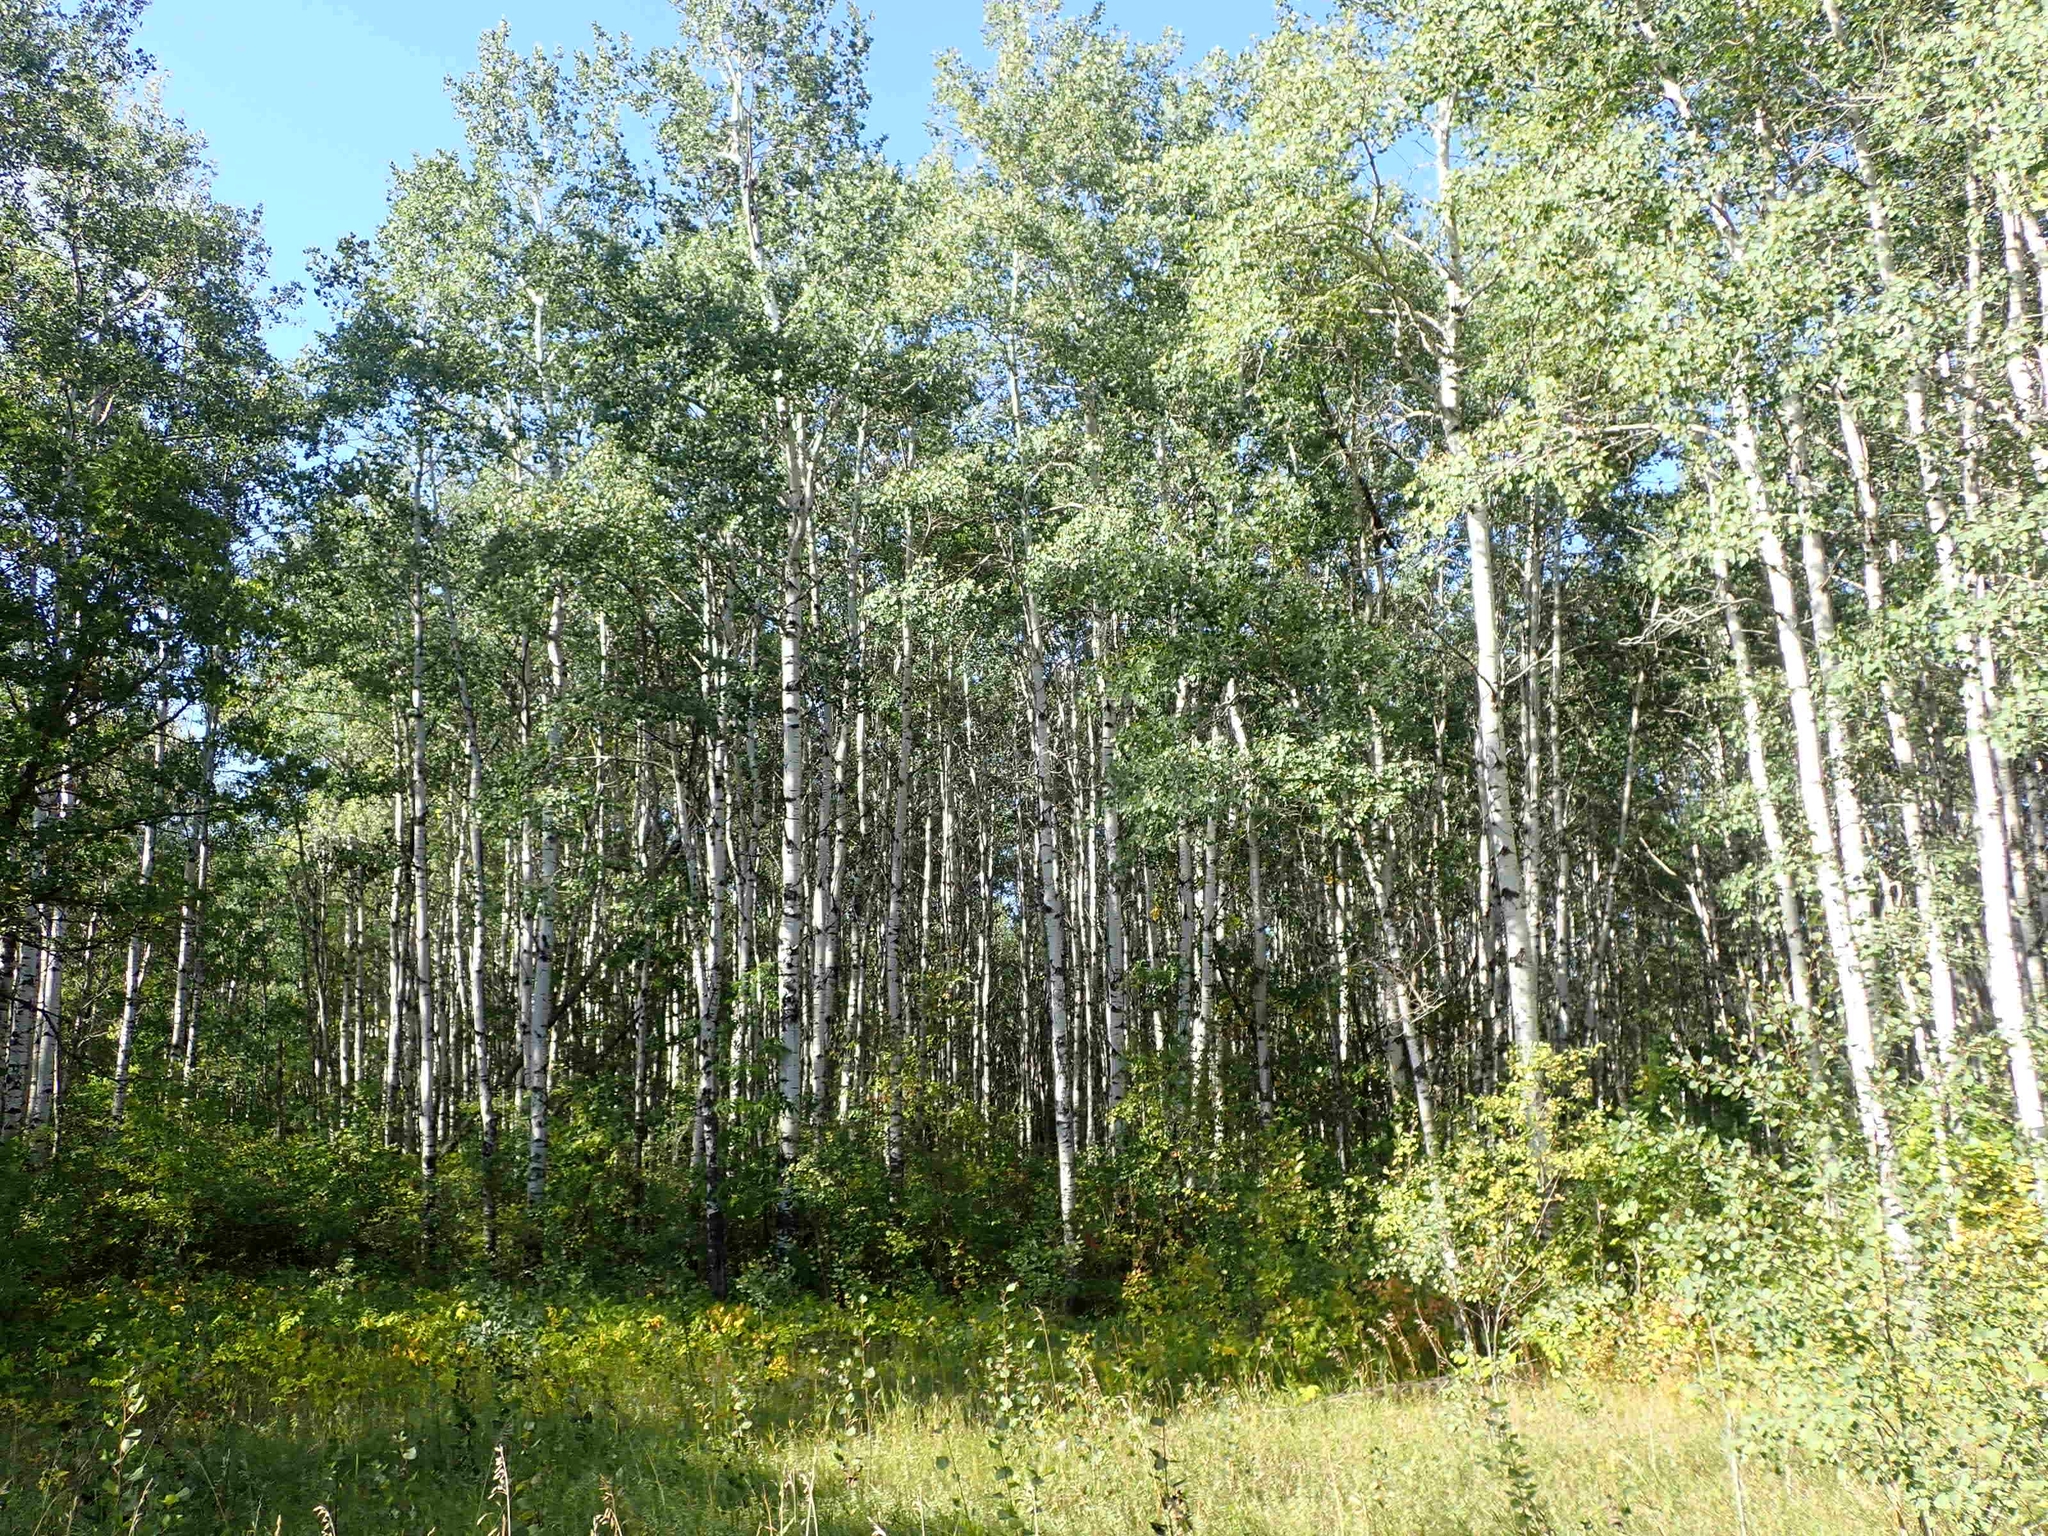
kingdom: Plantae
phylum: Tracheophyta
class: Magnoliopsida
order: Malpighiales
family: Salicaceae
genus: Populus
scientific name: Populus tremuloides
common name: Quaking aspen
